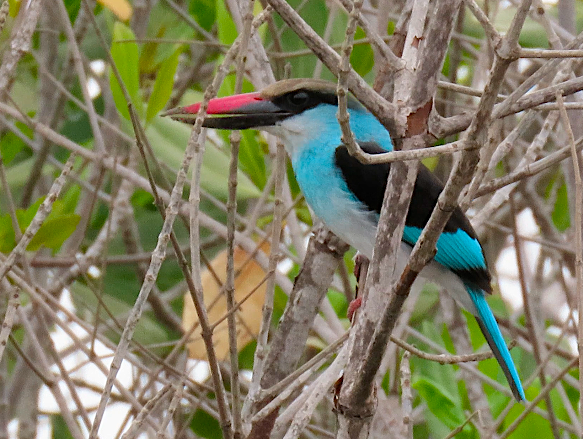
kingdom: Animalia
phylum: Chordata
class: Aves
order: Coraciiformes
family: Alcedinidae
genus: Halcyon
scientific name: Halcyon malimbica
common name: Blue-breasted kingfisher
